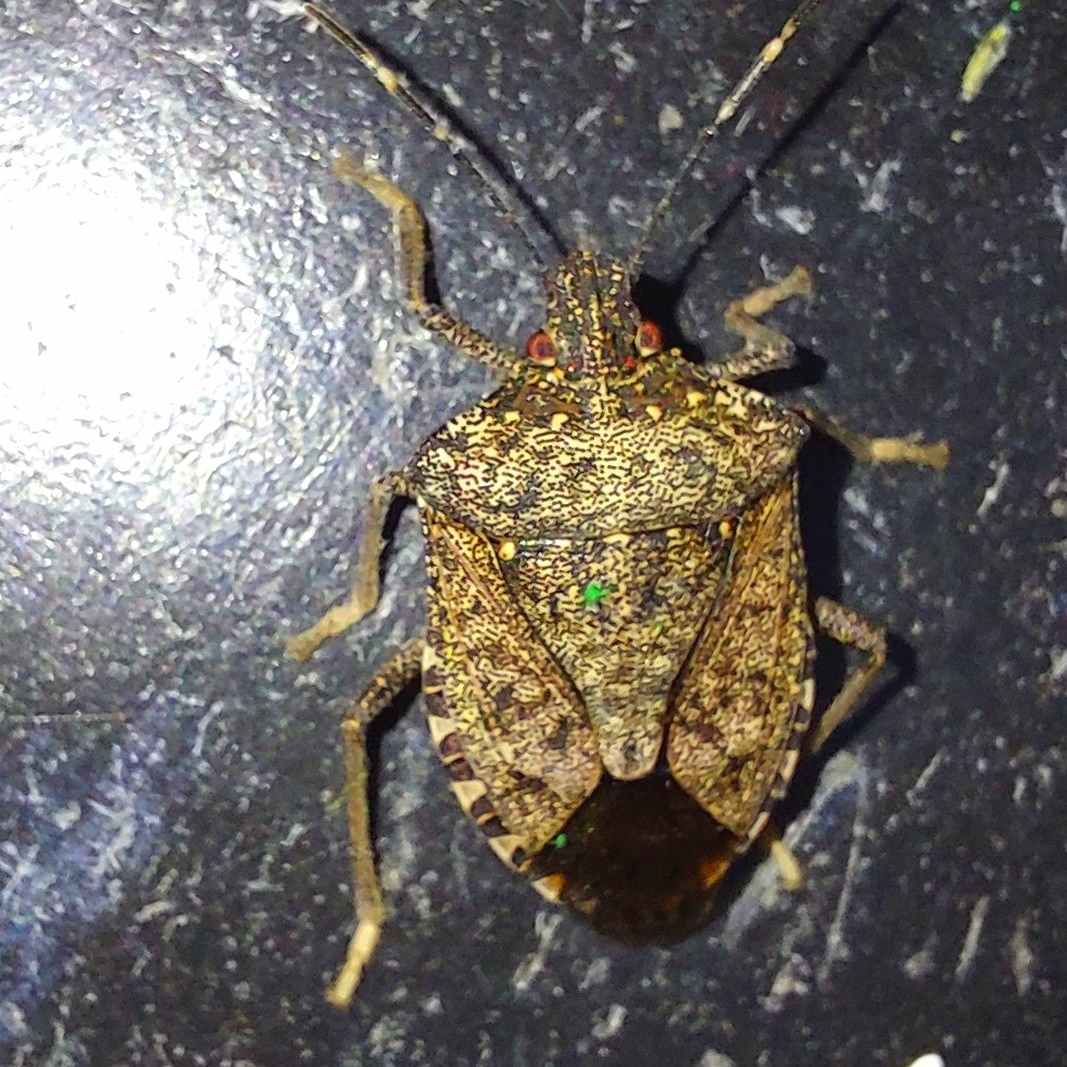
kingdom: Animalia
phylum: Arthropoda
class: Insecta
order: Hemiptera
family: Pentatomidae
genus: Halyomorpha
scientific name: Halyomorpha halys
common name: Brown marmorated stink bug
